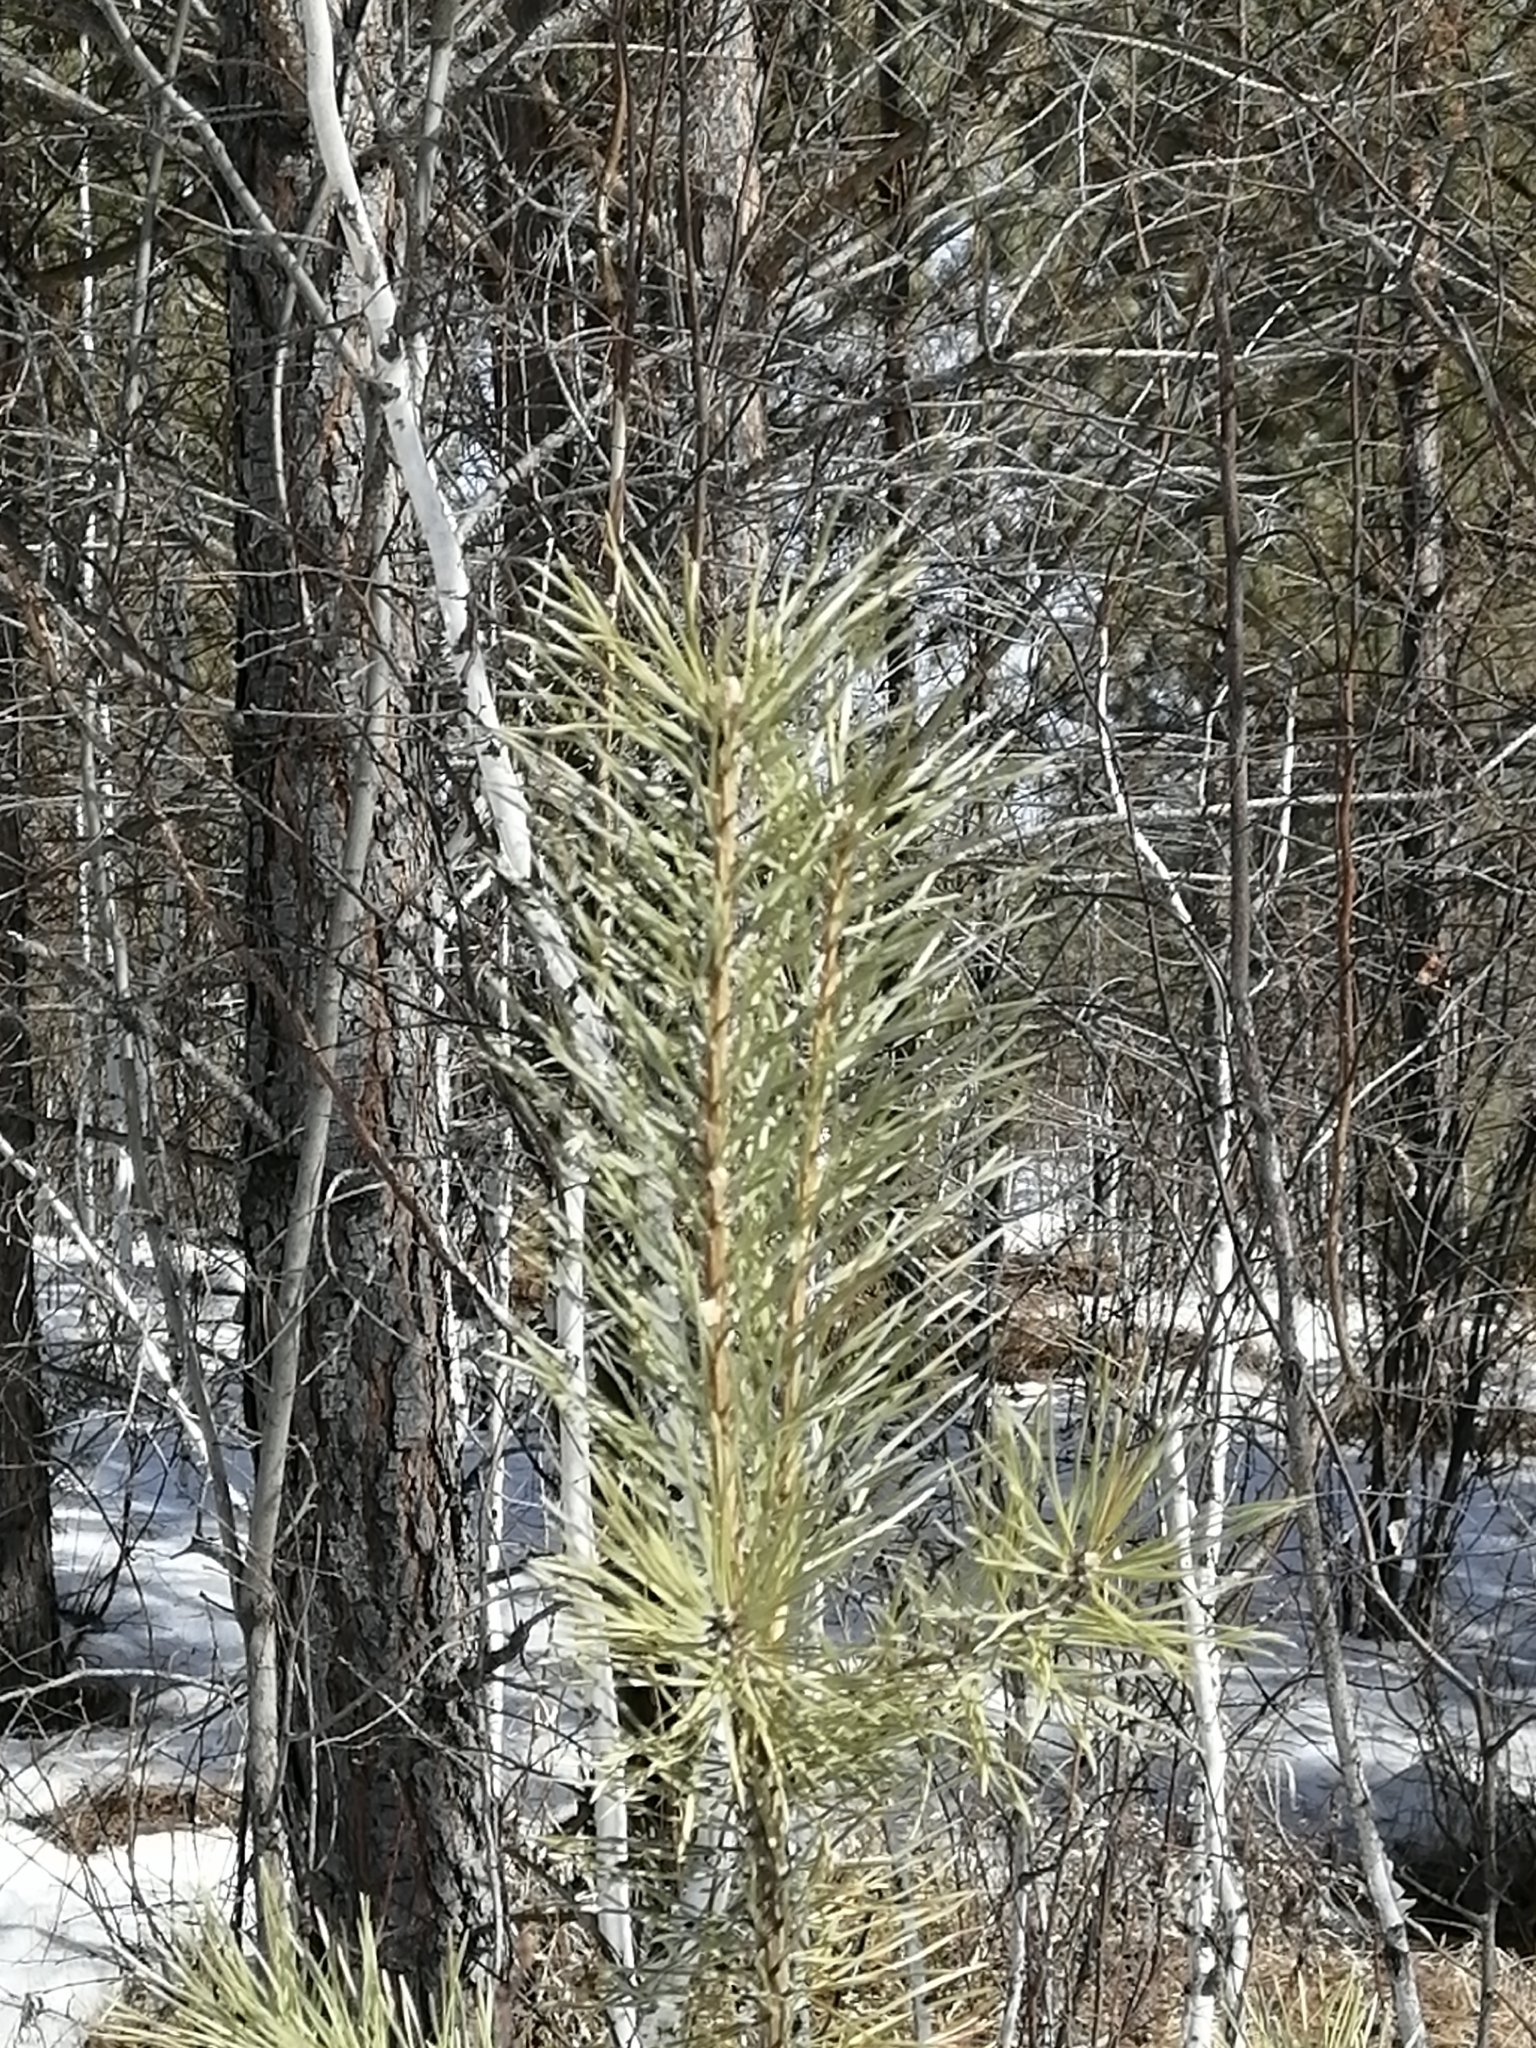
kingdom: Plantae
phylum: Tracheophyta
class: Pinopsida
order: Pinales
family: Pinaceae
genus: Pinus
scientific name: Pinus sylvestris
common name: Scots pine
